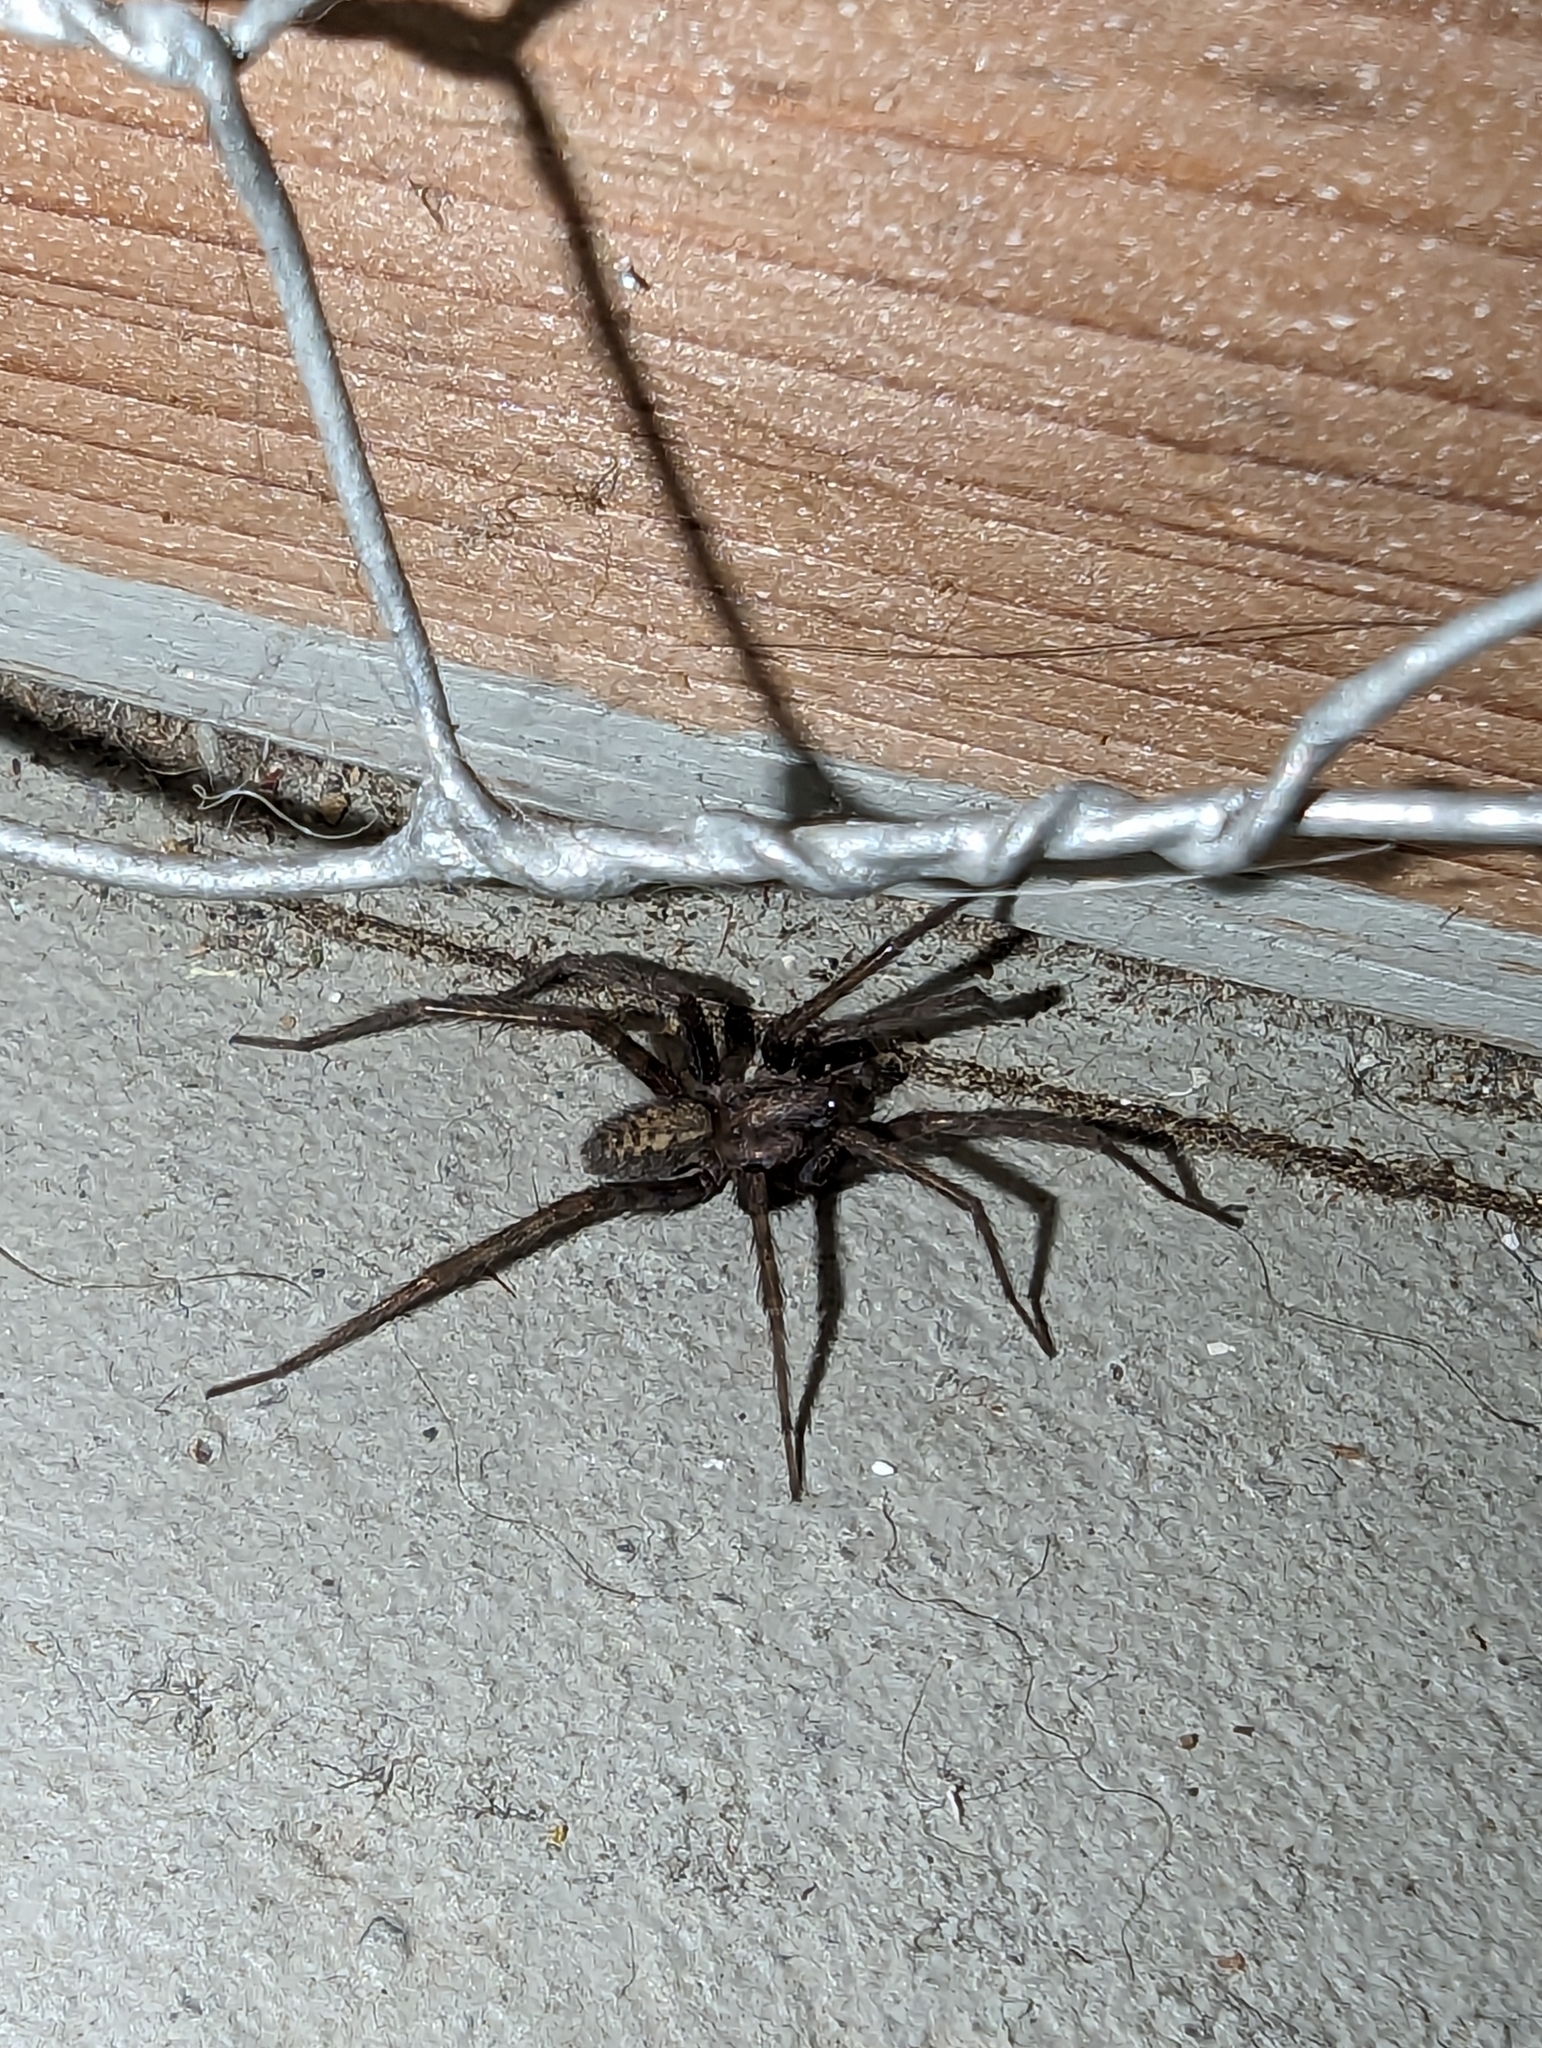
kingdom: Animalia
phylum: Arthropoda
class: Arachnida
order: Araneae
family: Agelenidae
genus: Tegenaria
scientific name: Tegenaria domestica
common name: Barn funnel weaver
